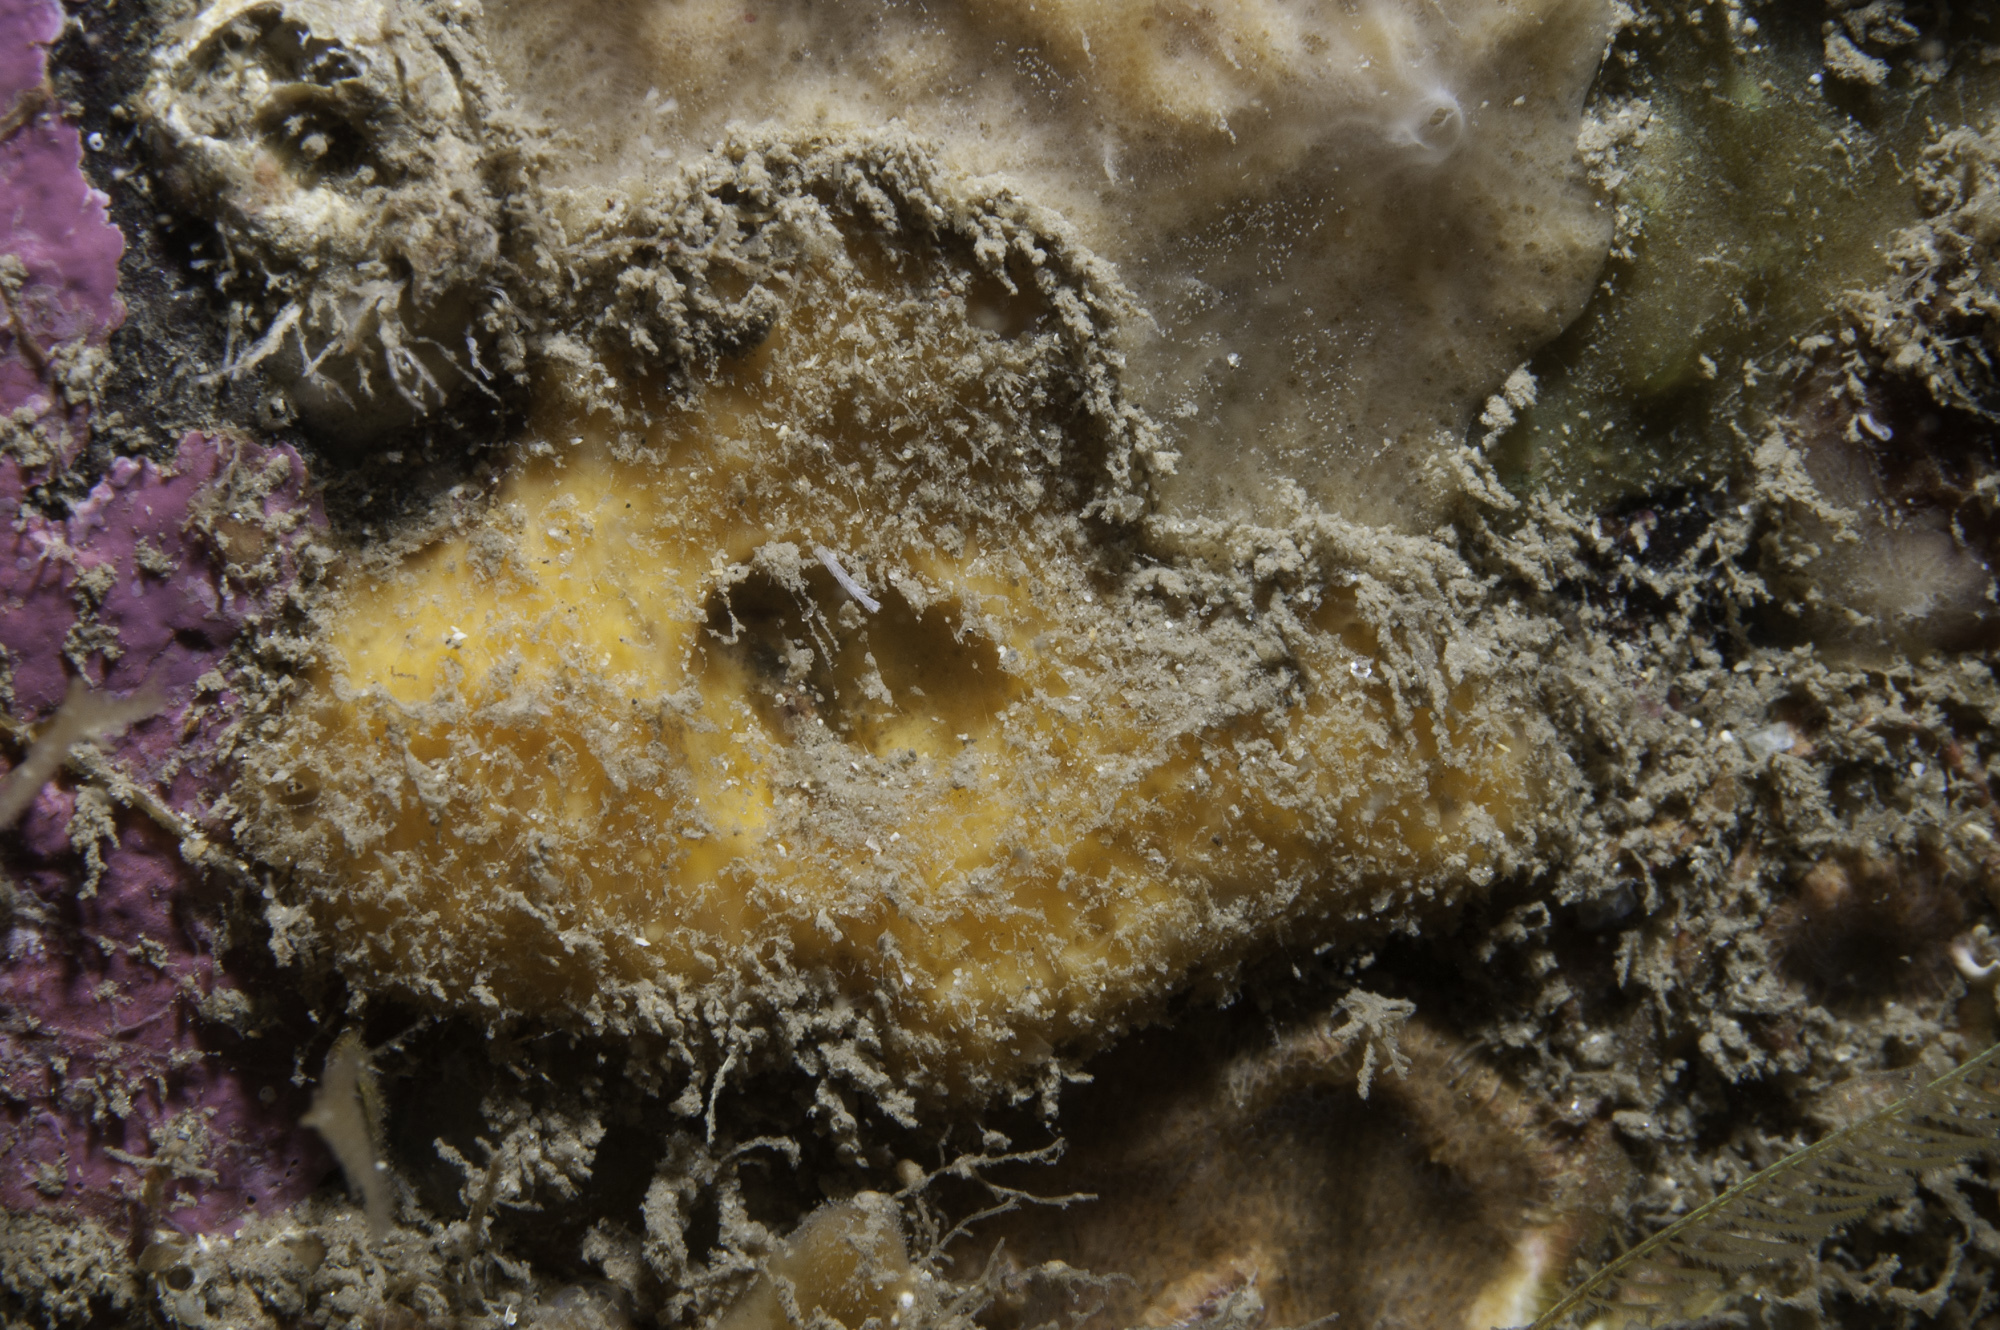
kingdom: Animalia
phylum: Porifera
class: Demospongiae
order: Axinellida
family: Stelligeridae
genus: Paratimea
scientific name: Paratimea aurantiaca
